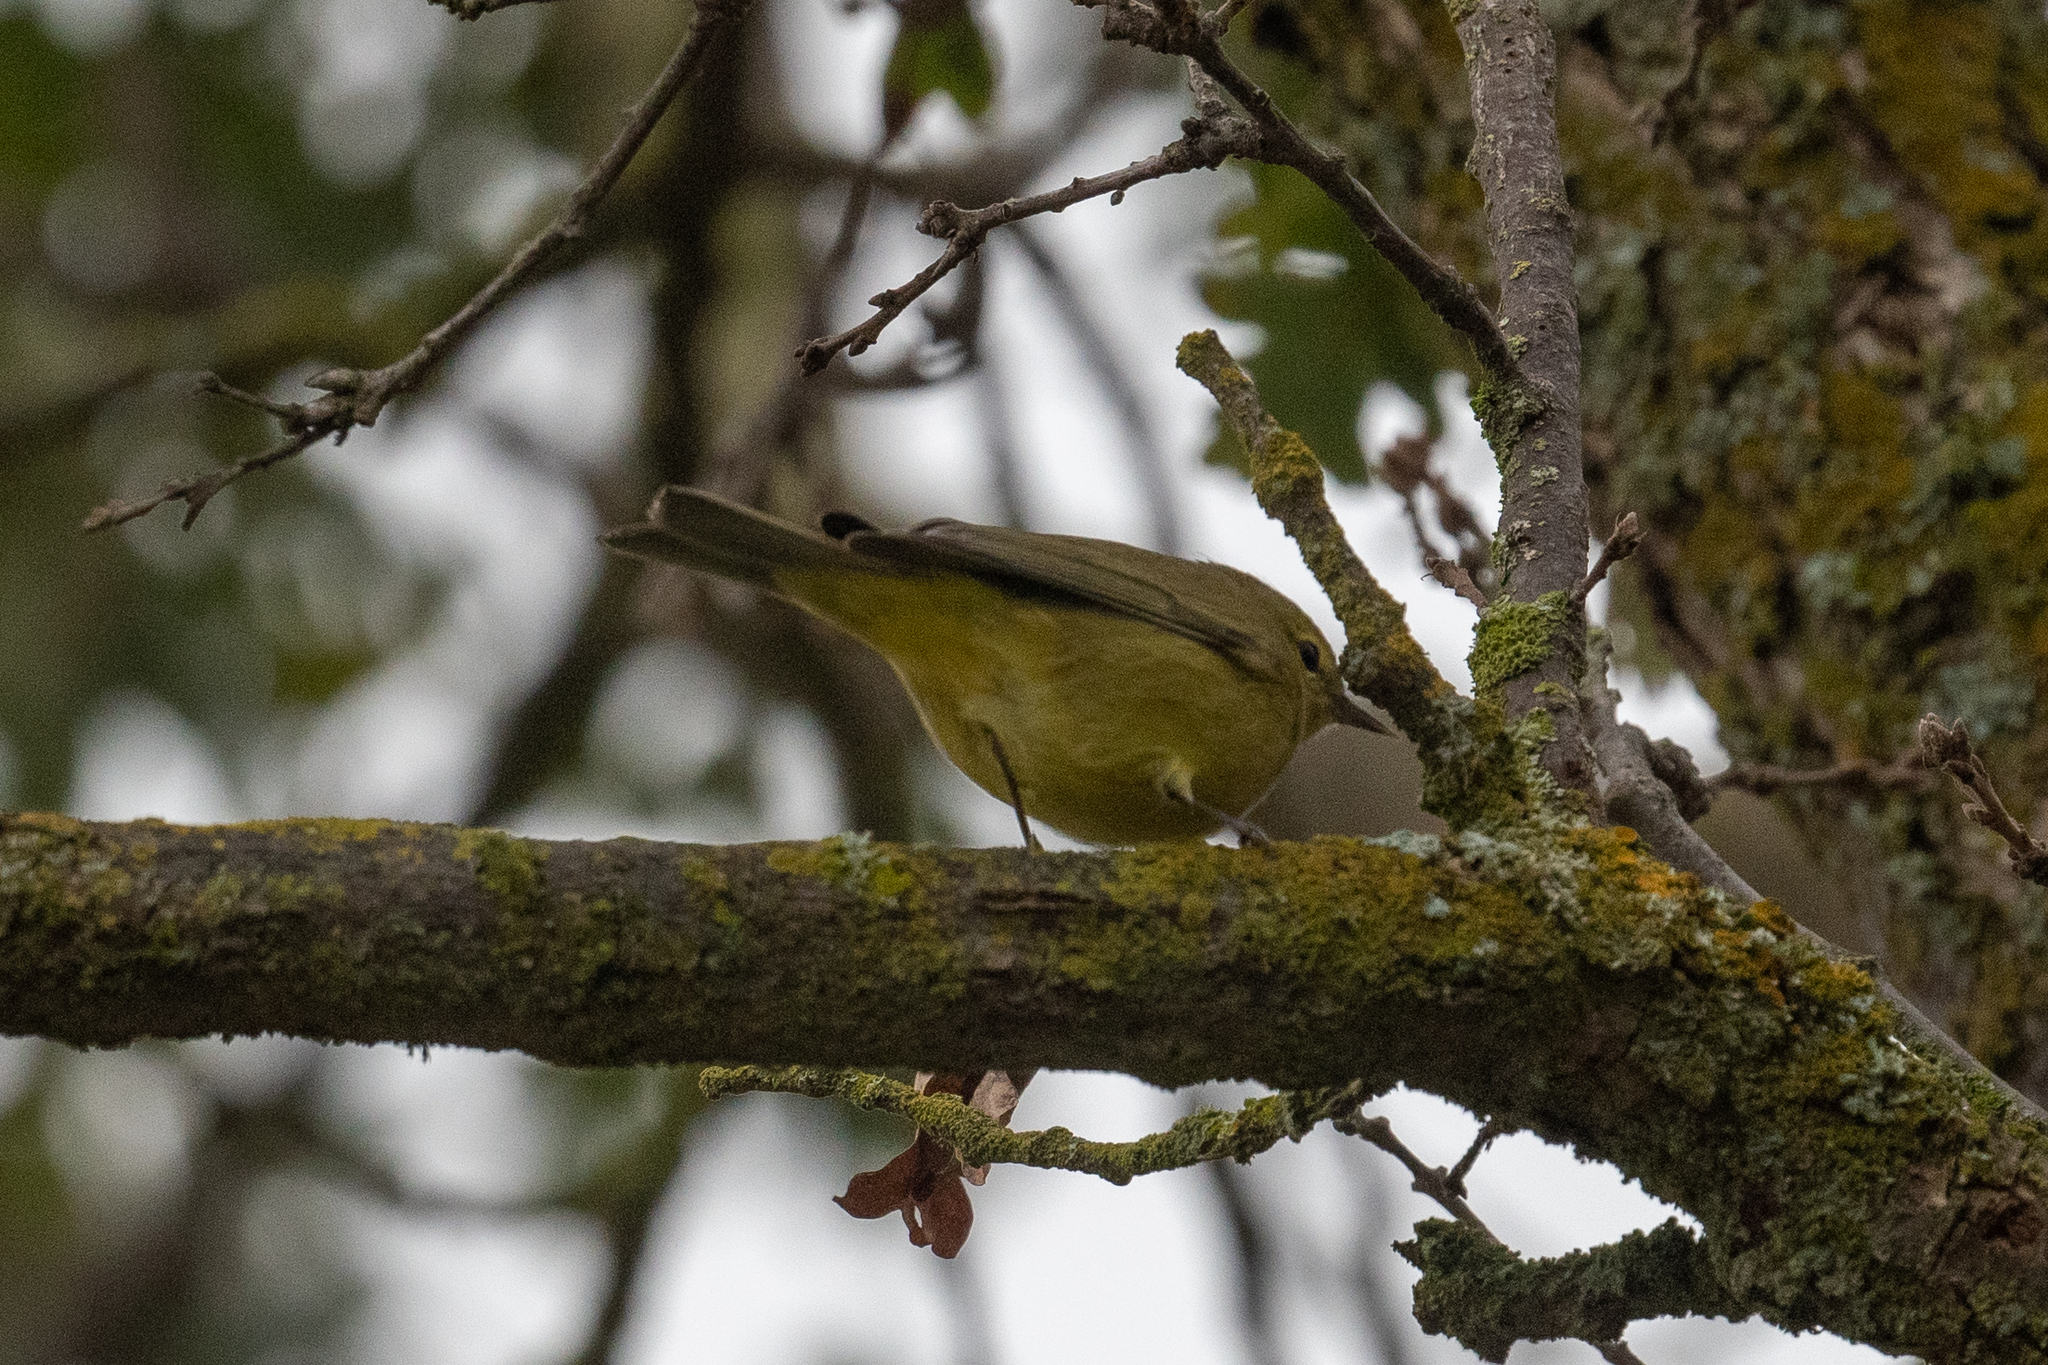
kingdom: Animalia
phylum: Chordata
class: Aves
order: Passeriformes
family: Parulidae
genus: Leiothlypis
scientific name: Leiothlypis celata
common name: Orange-crowned warbler
